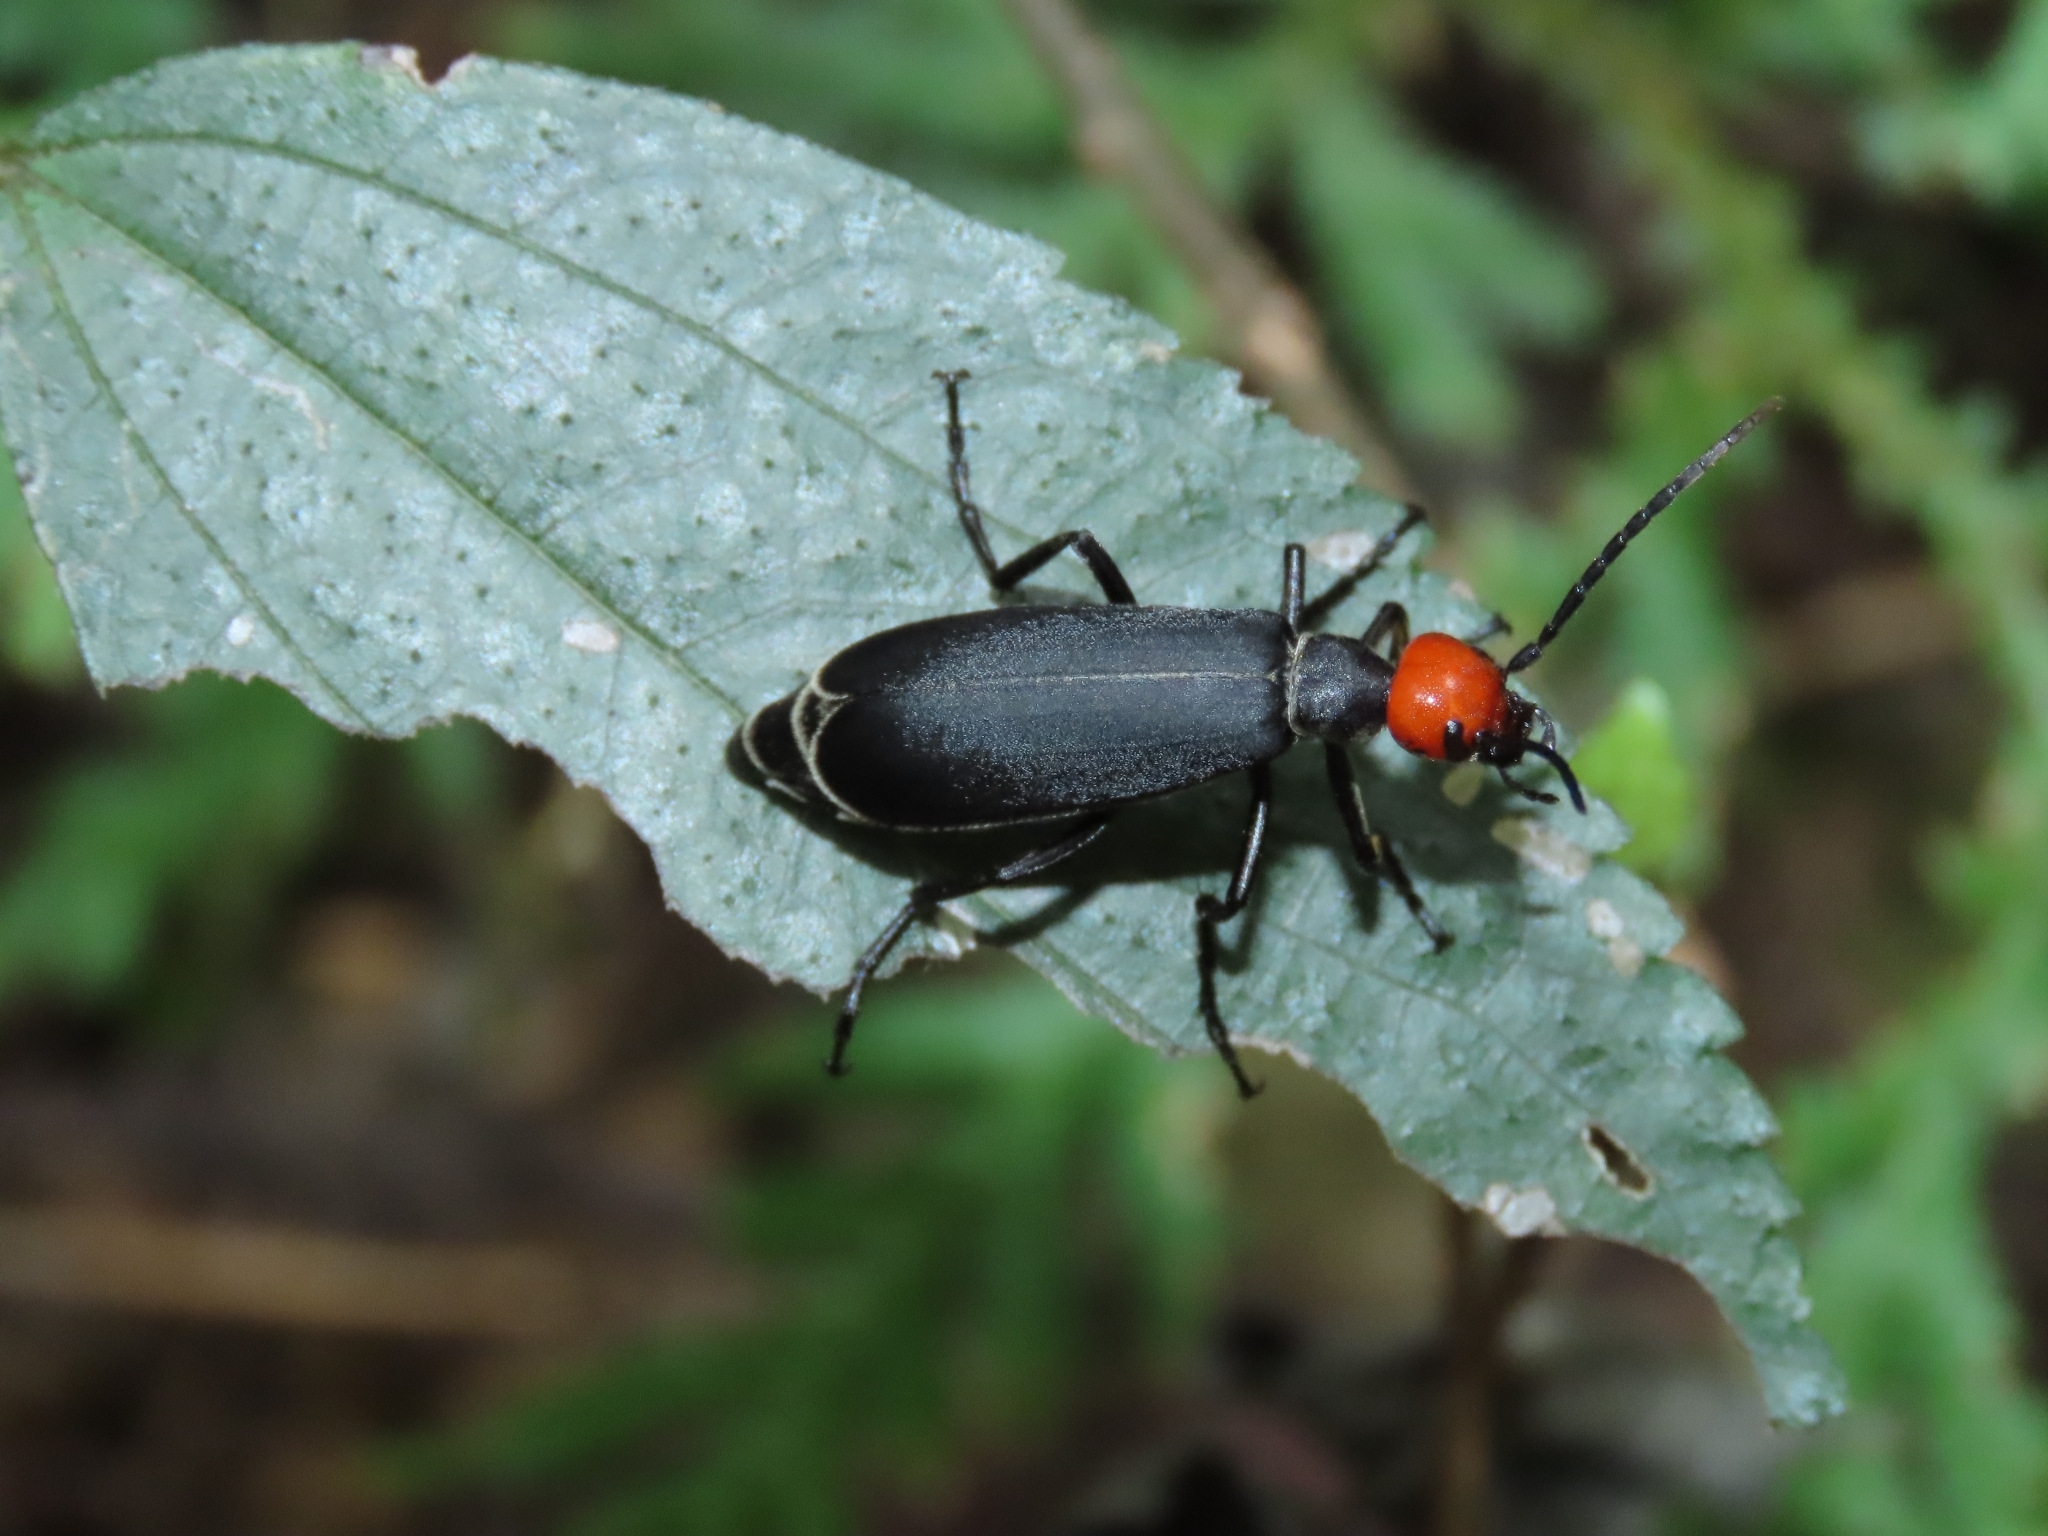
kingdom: Animalia
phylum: Arthropoda
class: Insecta
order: Coleoptera
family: Meloidae
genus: Epicauta
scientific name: Epicauta hirticornis
